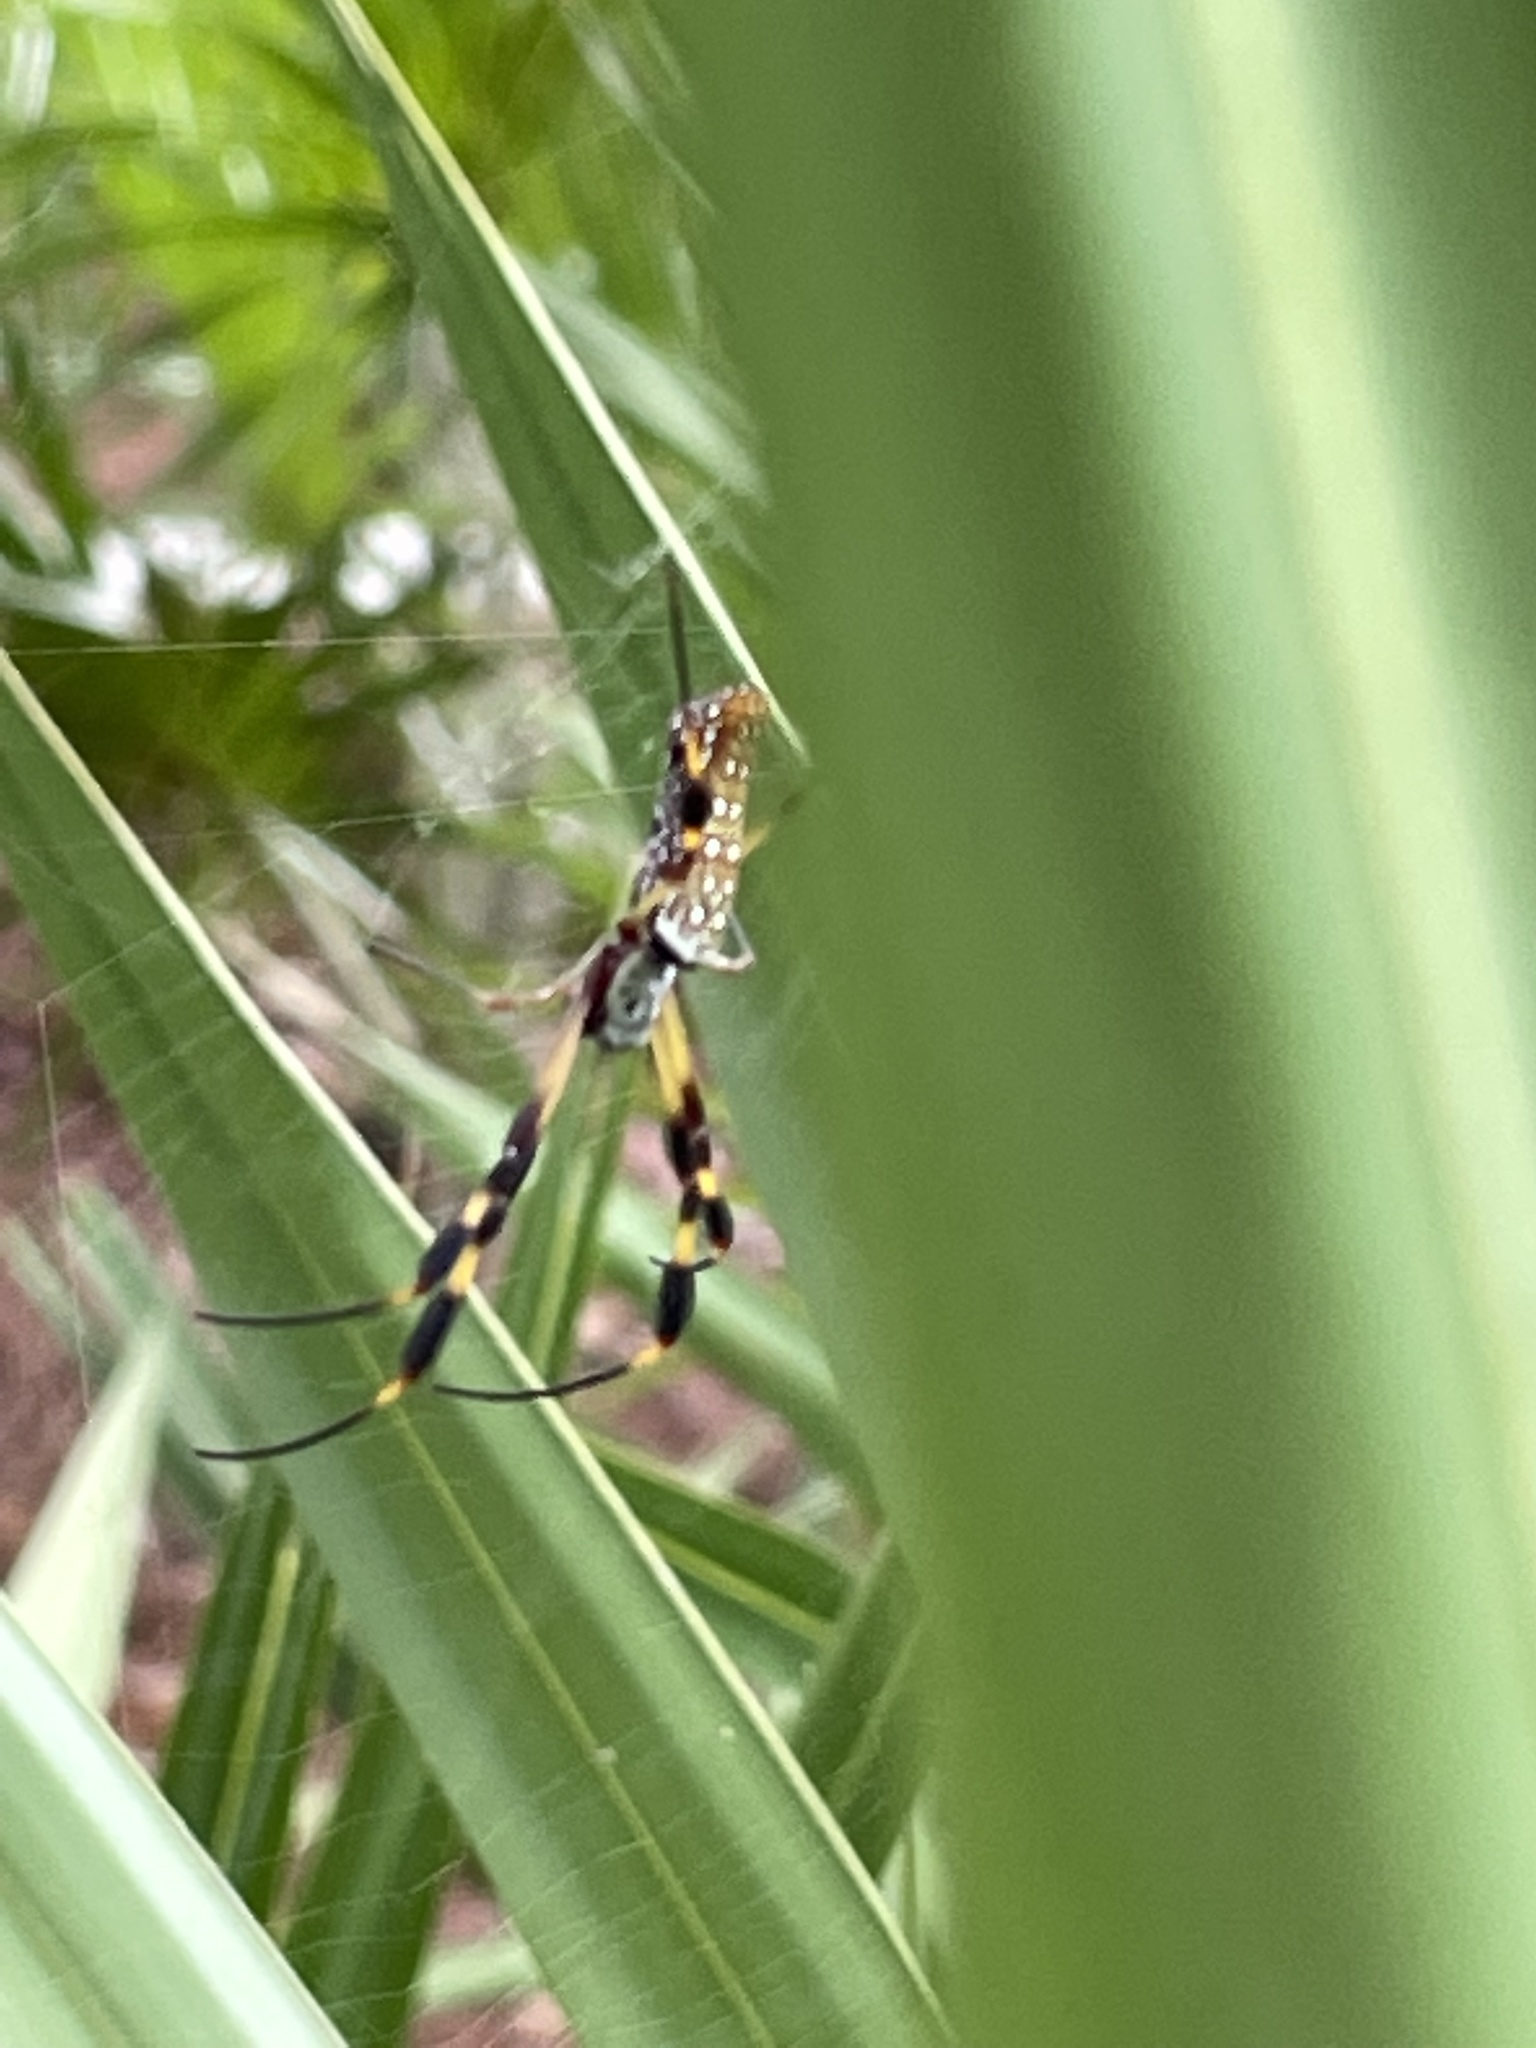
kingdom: Animalia
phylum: Arthropoda
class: Arachnida
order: Araneae
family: Araneidae
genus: Trichonephila
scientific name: Trichonephila clavipes
